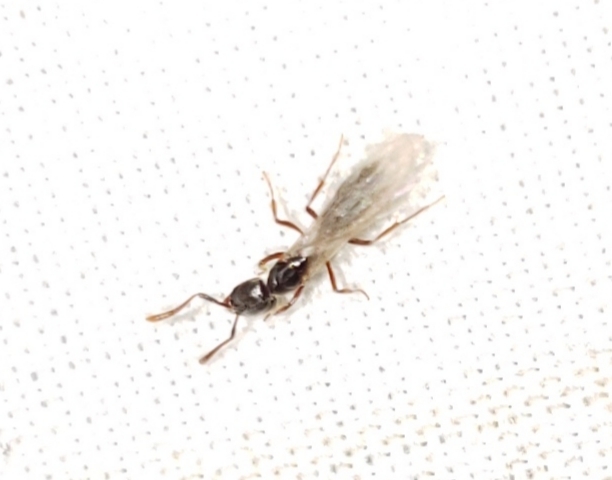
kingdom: Animalia
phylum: Arthropoda
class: Insecta
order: Hymenoptera
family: Formicidae
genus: Hypoponera
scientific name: Hypoponera opaciceps
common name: Granulate mini-ponerine ant
